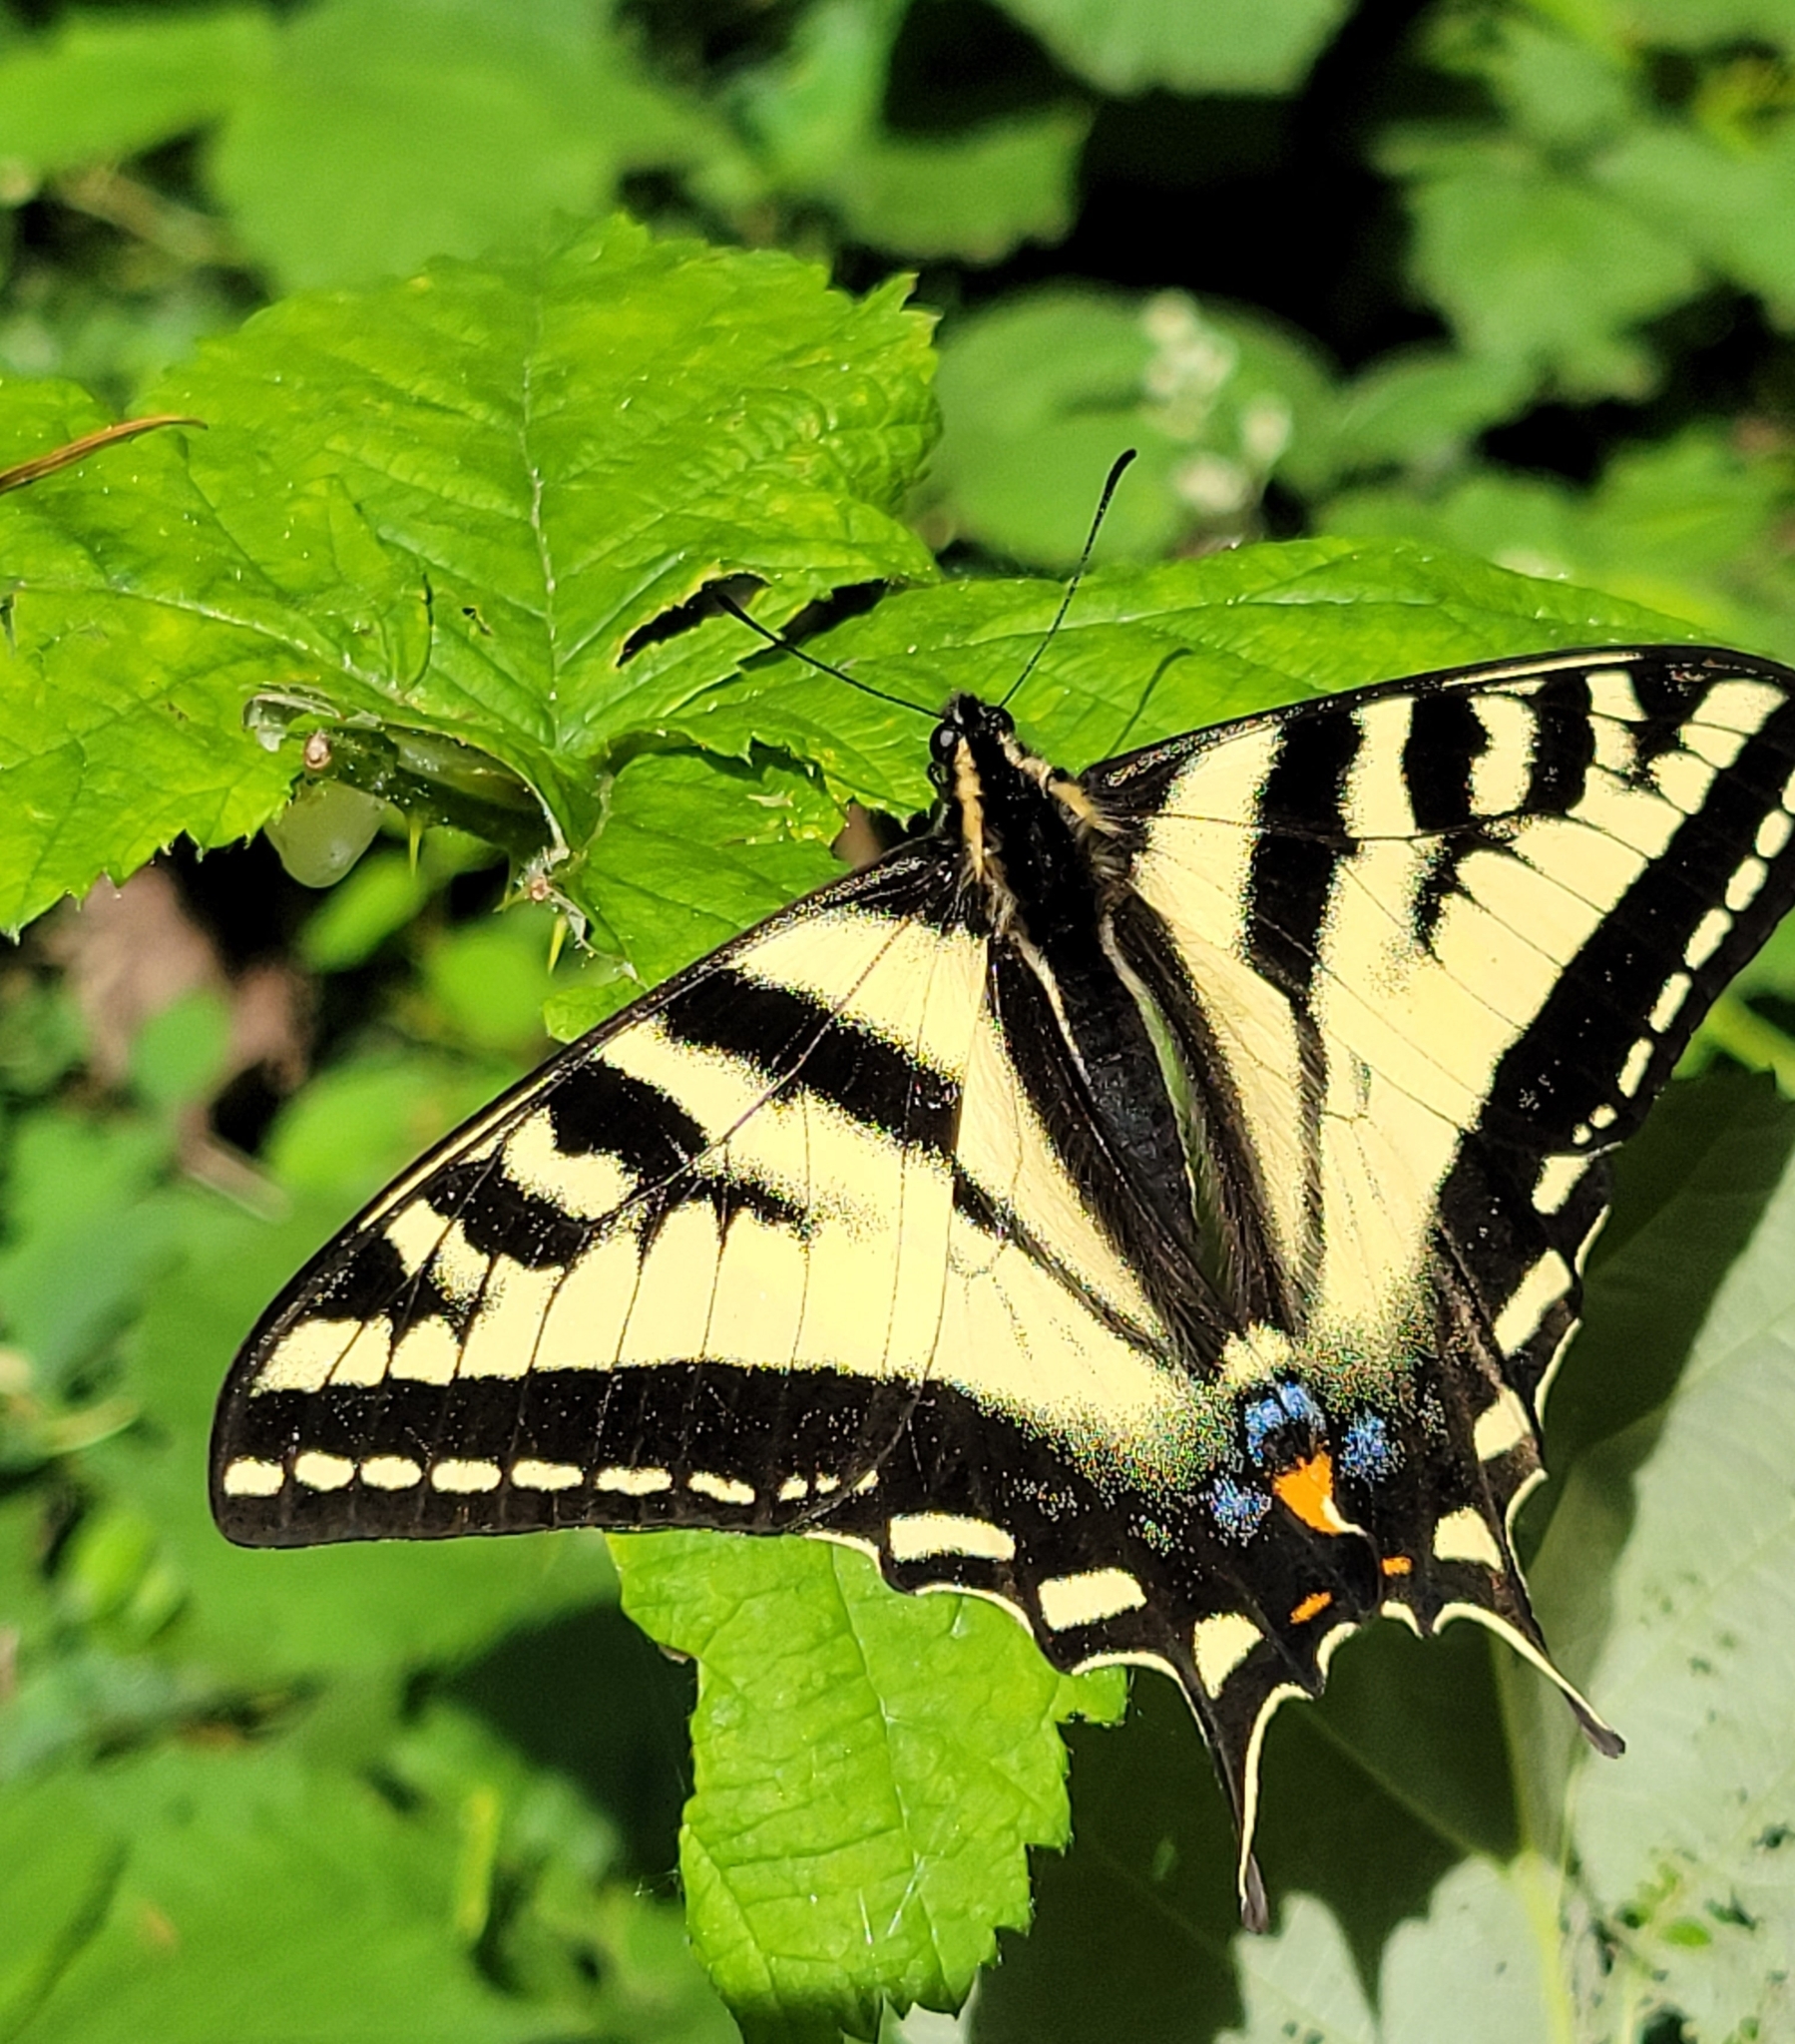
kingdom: Animalia
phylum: Arthropoda
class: Insecta
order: Lepidoptera
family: Papilionidae
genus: Papilio
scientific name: Papilio rutulus
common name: Western tiger swallowtail
